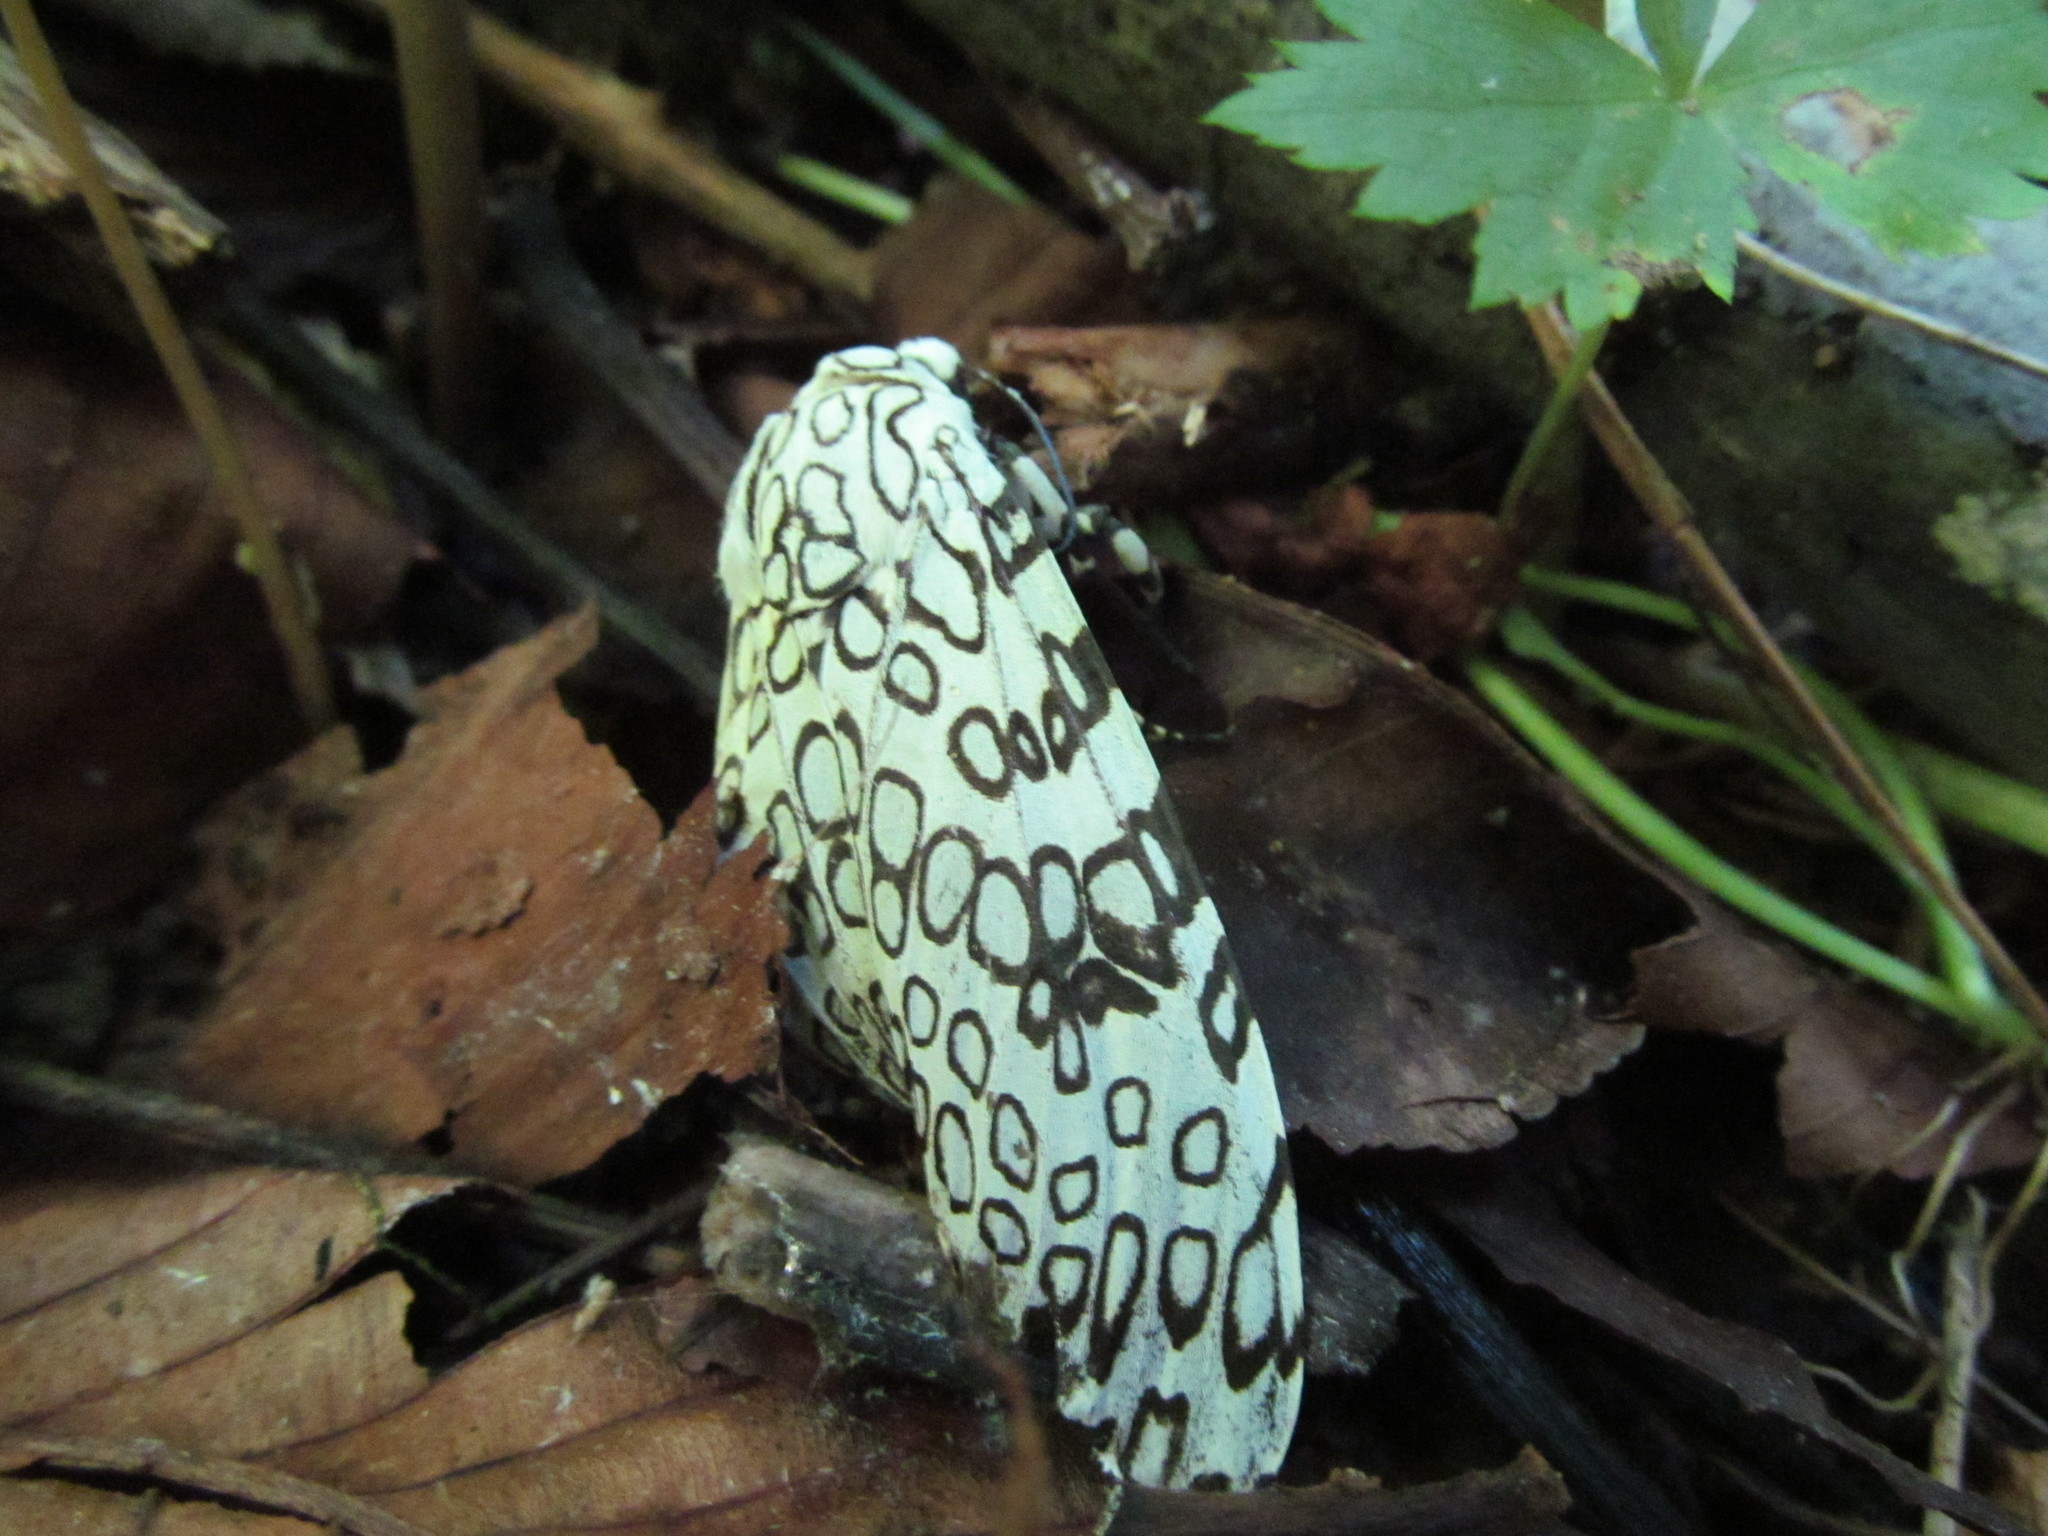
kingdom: Animalia
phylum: Arthropoda
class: Insecta
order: Lepidoptera
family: Erebidae
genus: Hypercompe
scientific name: Hypercompe scribonia
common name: Giant leopard moth
